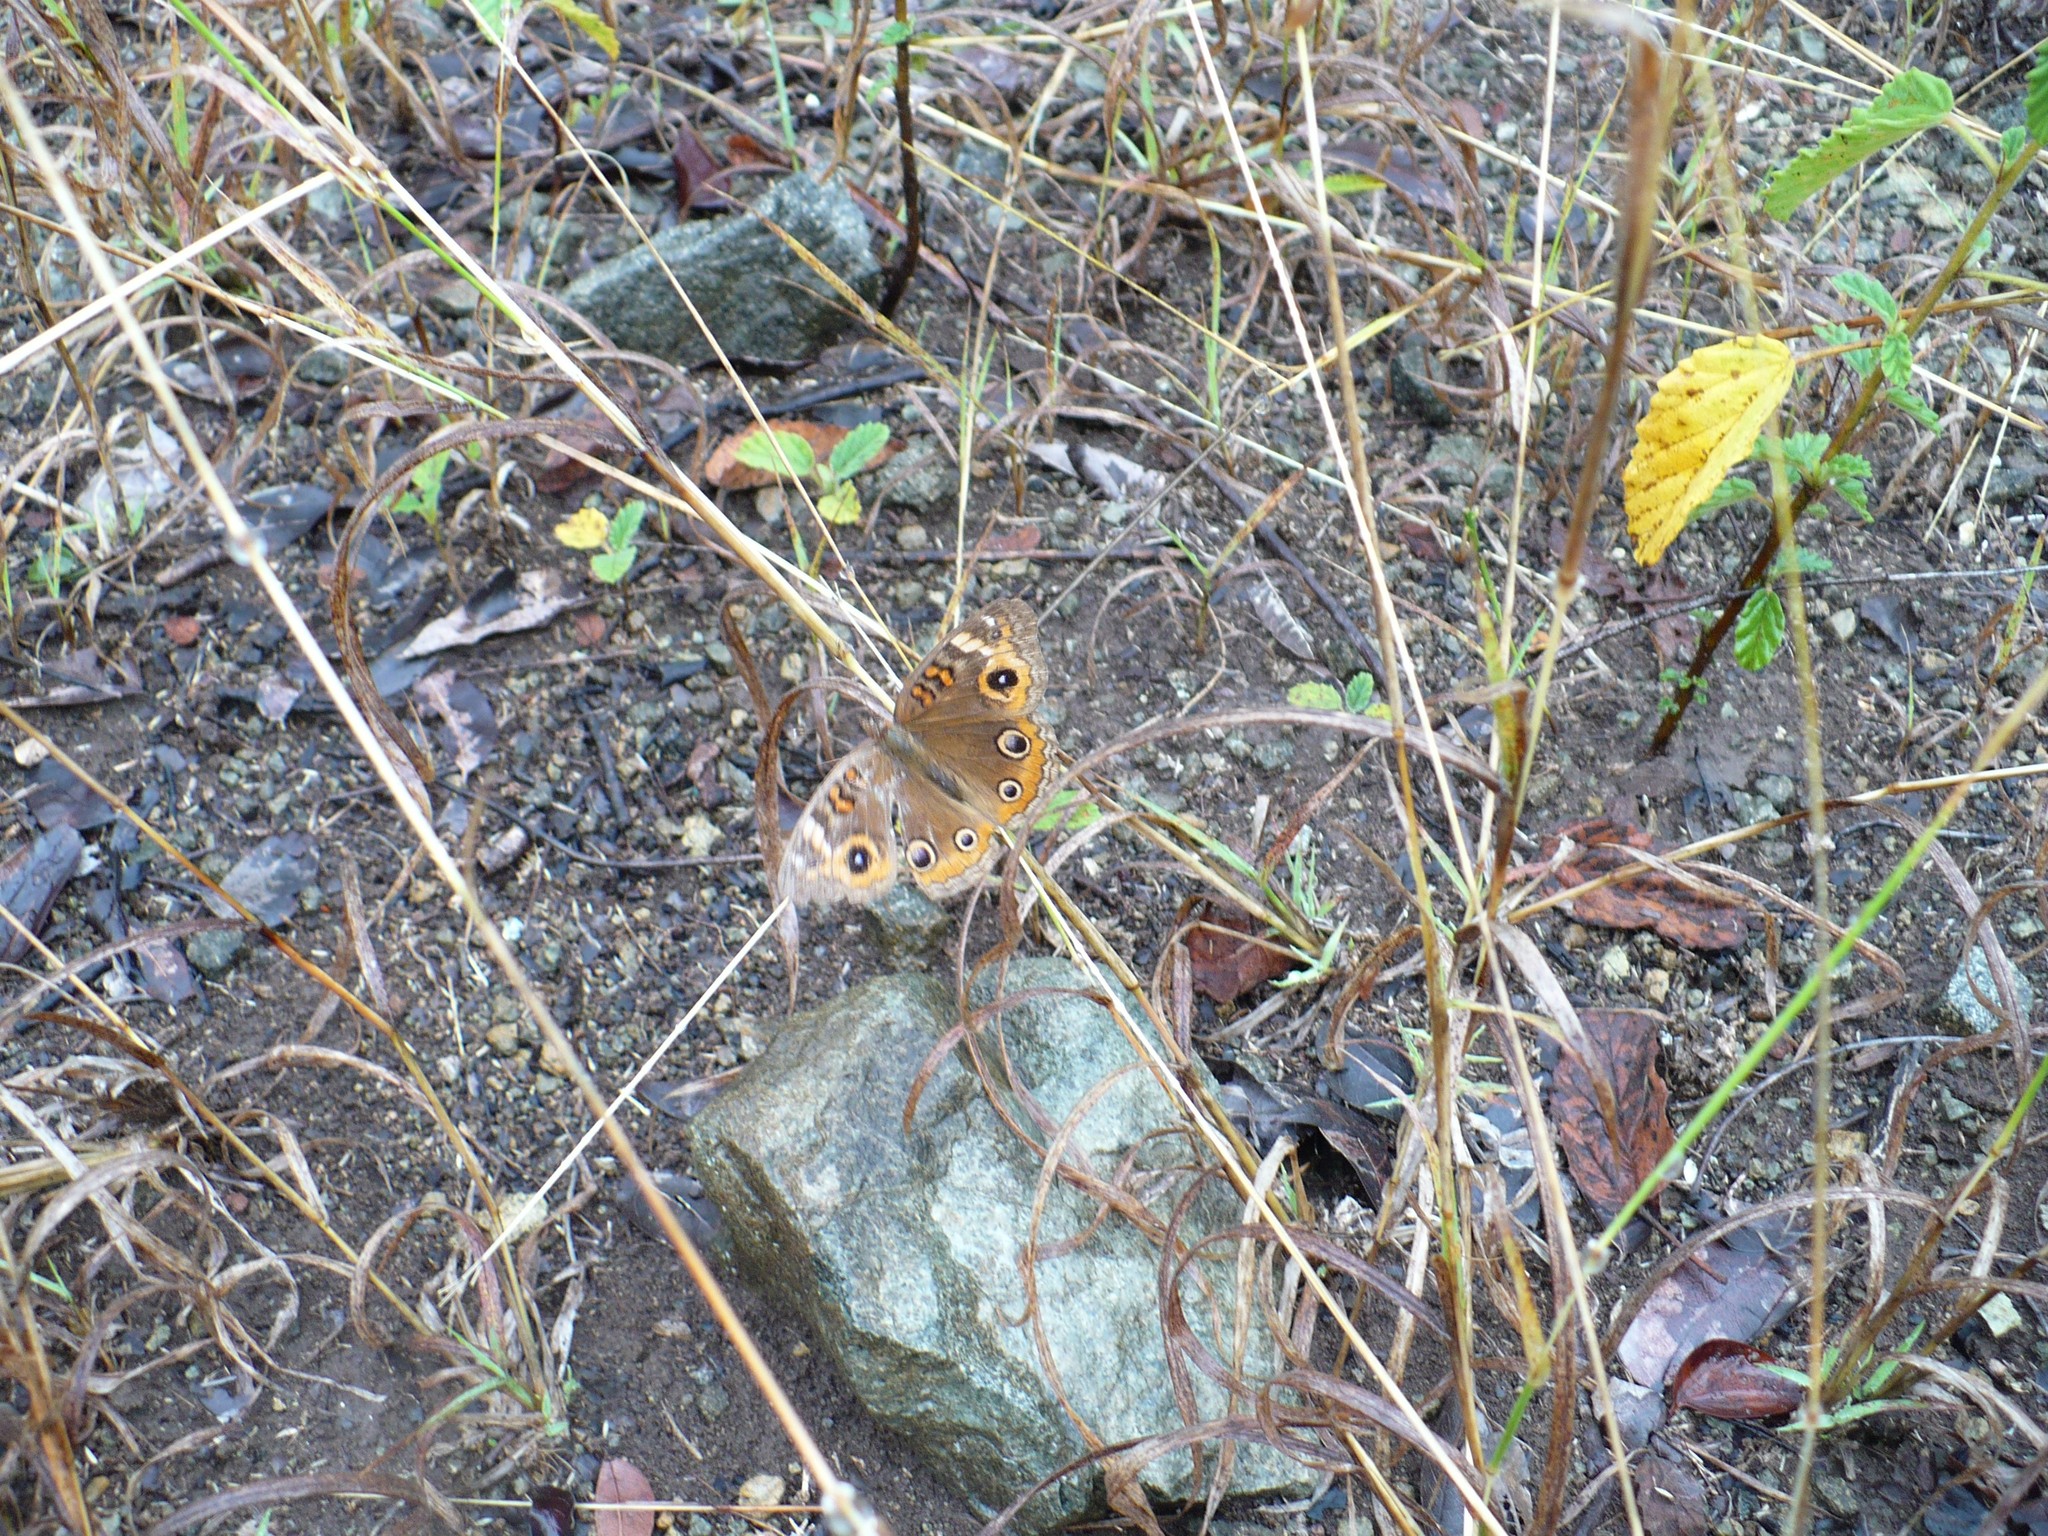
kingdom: Animalia
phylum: Arthropoda
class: Insecta
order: Lepidoptera
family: Nymphalidae
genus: Junonia
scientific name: Junonia lavinia
